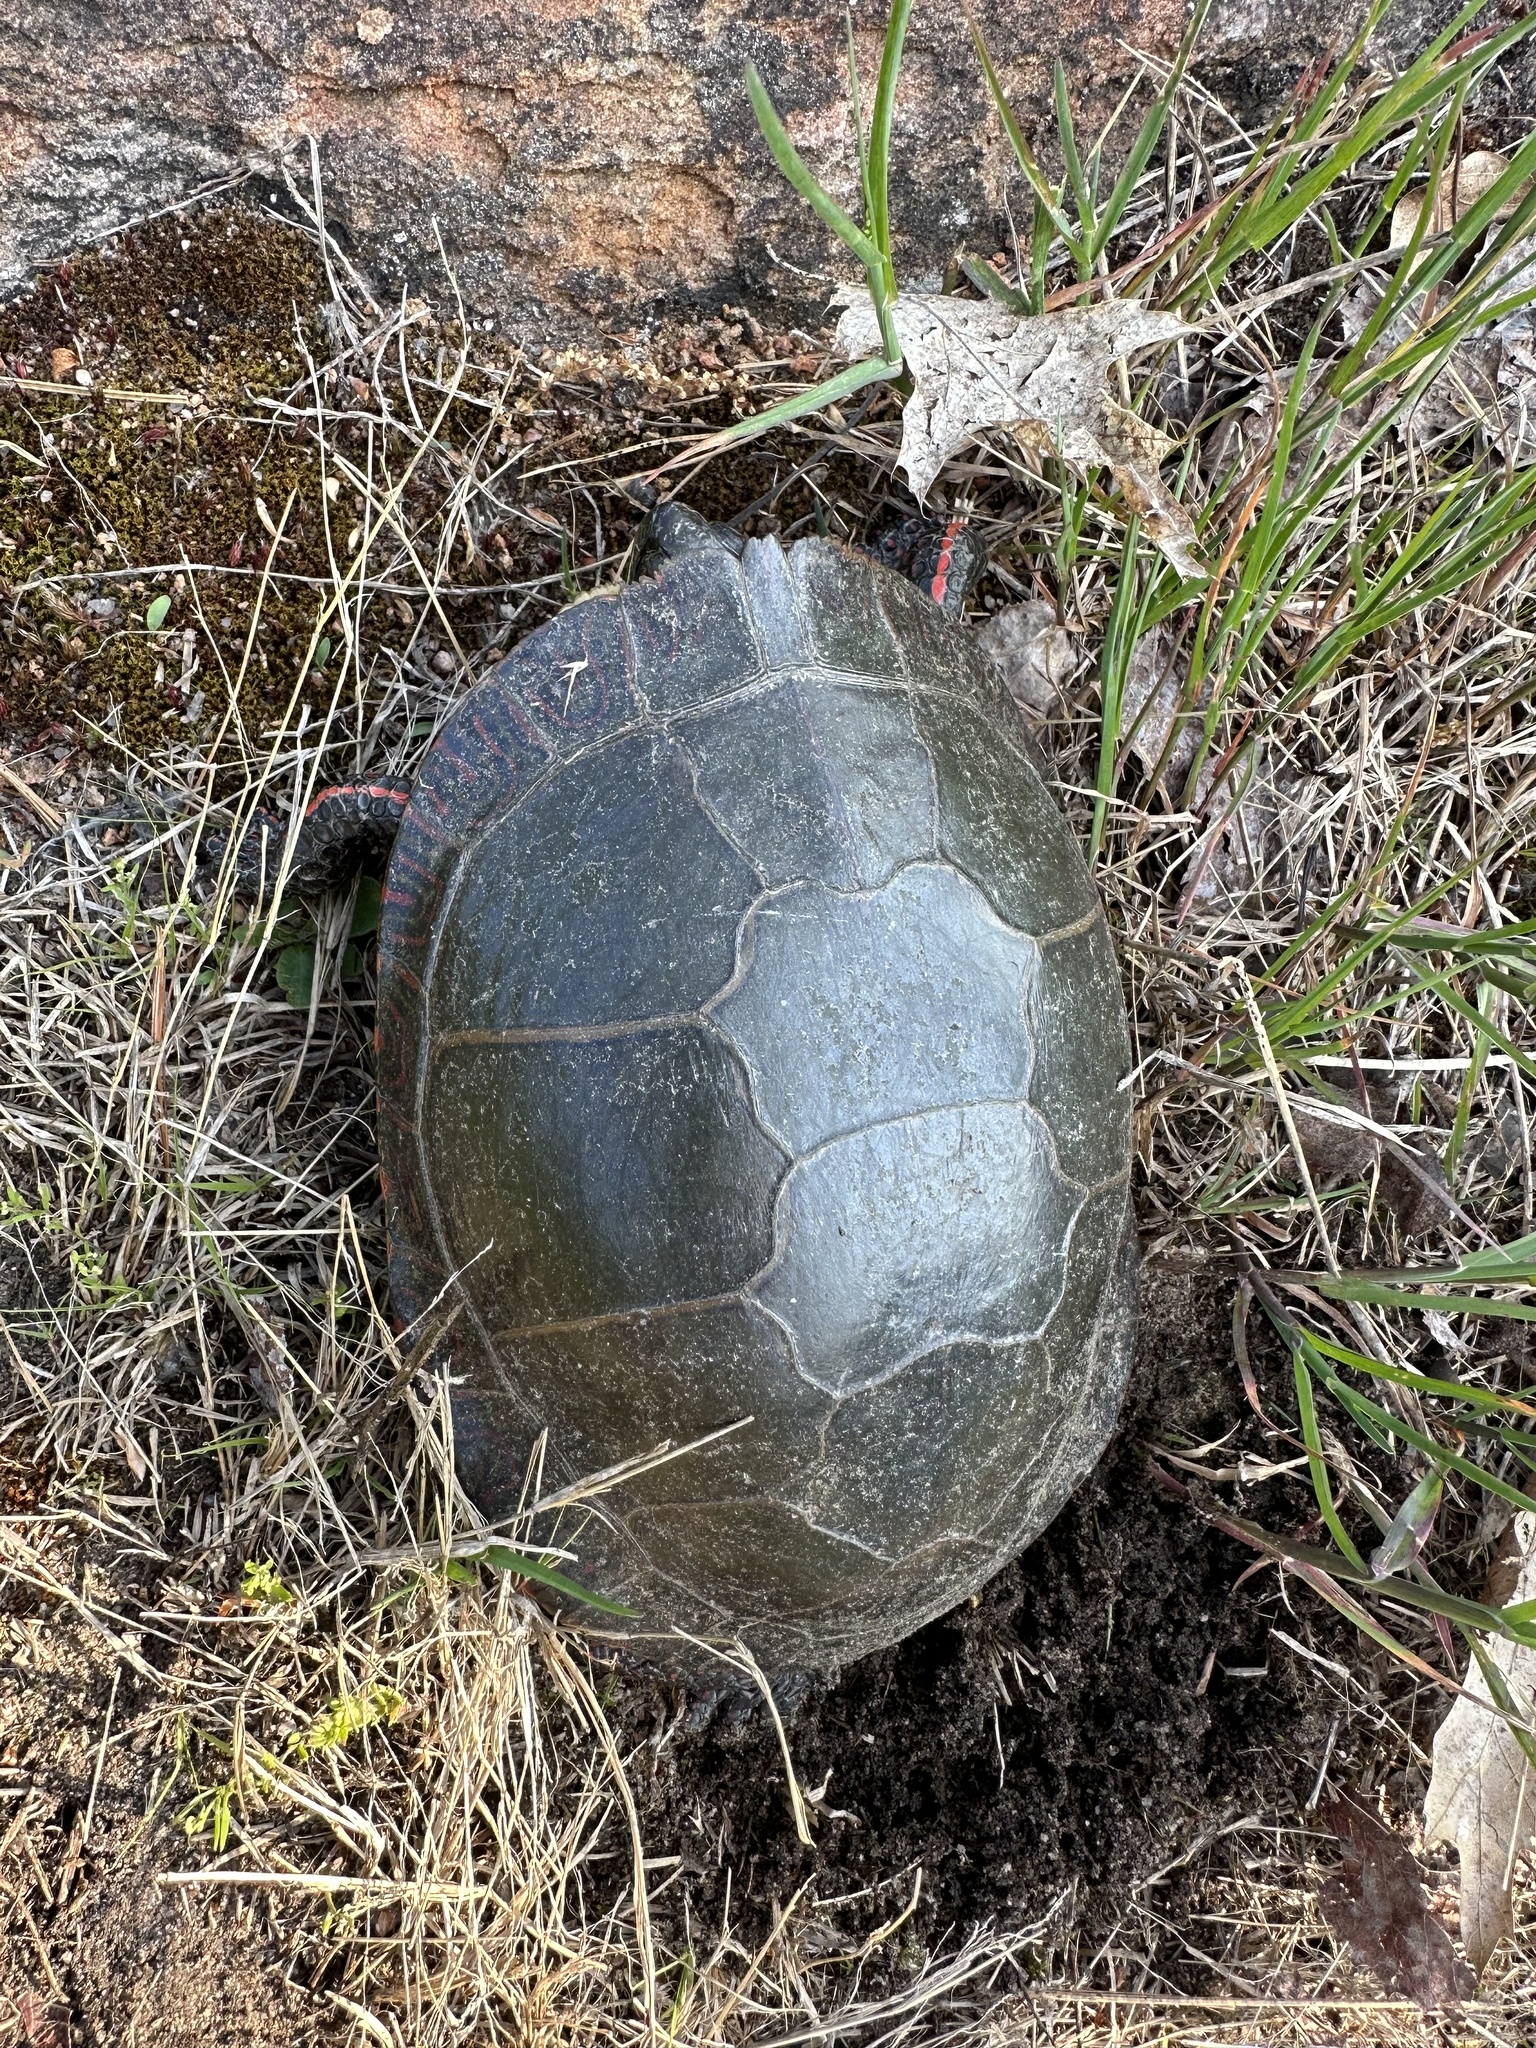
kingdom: Animalia
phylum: Chordata
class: Testudines
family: Emydidae
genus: Chrysemys
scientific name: Chrysemys picta
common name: Painted turtle
